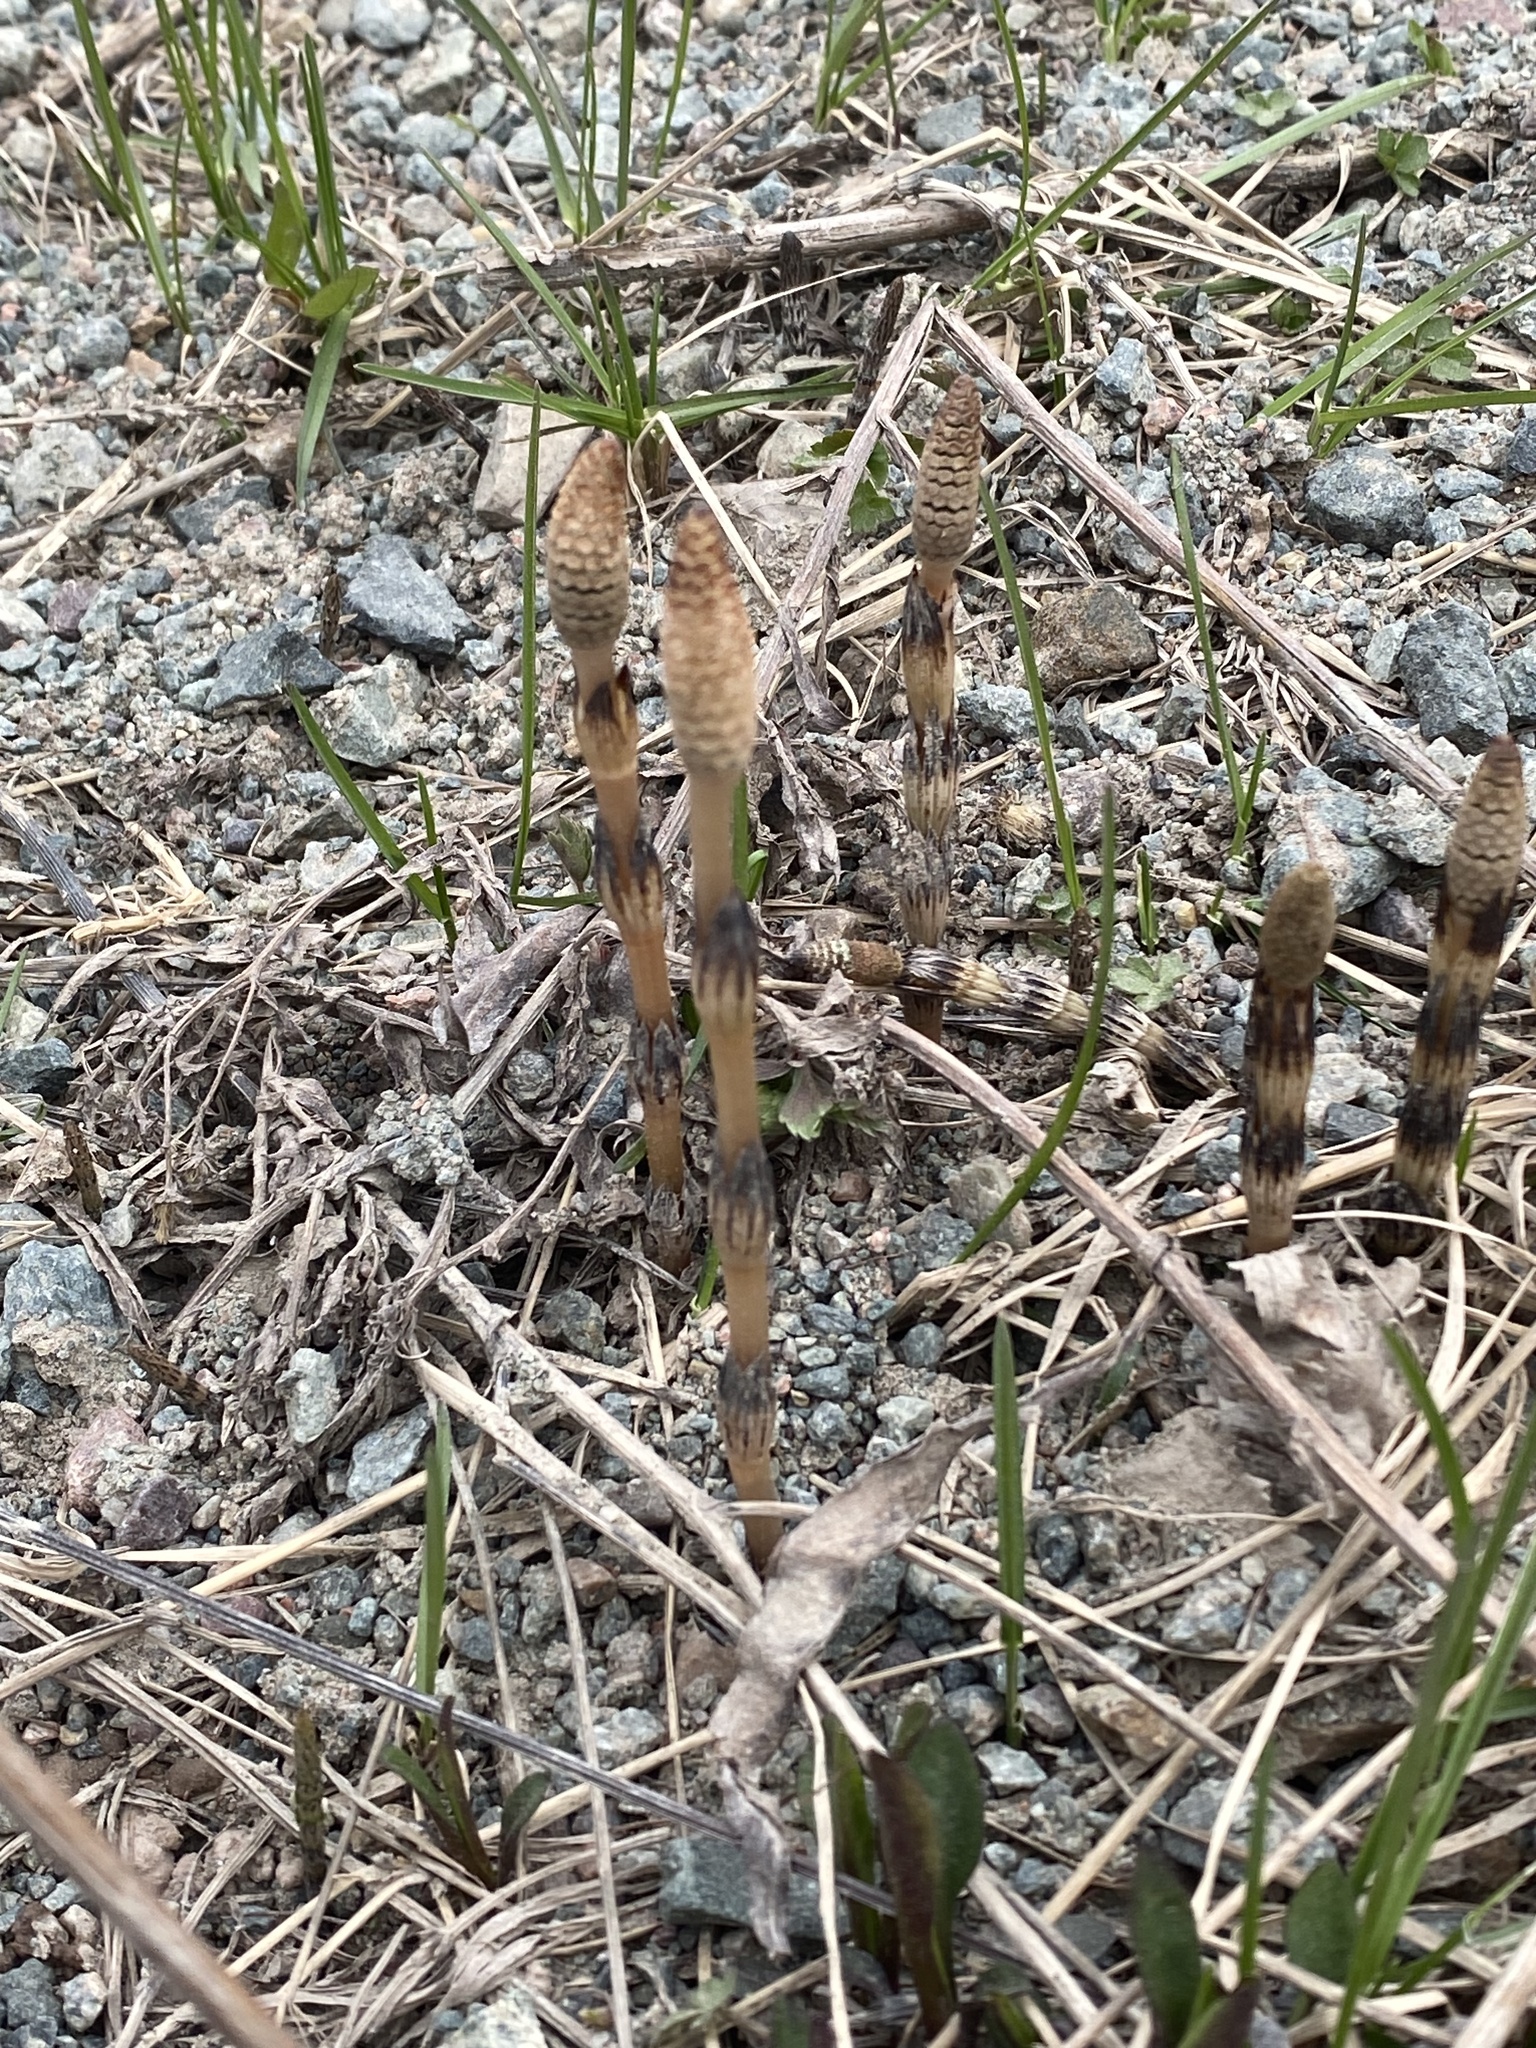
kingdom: Plantae
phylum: Tracheophyta
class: Polypodiopsida
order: Equisetales
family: Equisetaceae
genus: Equisetum
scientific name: Equisetum arvense
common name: Field horsetail
